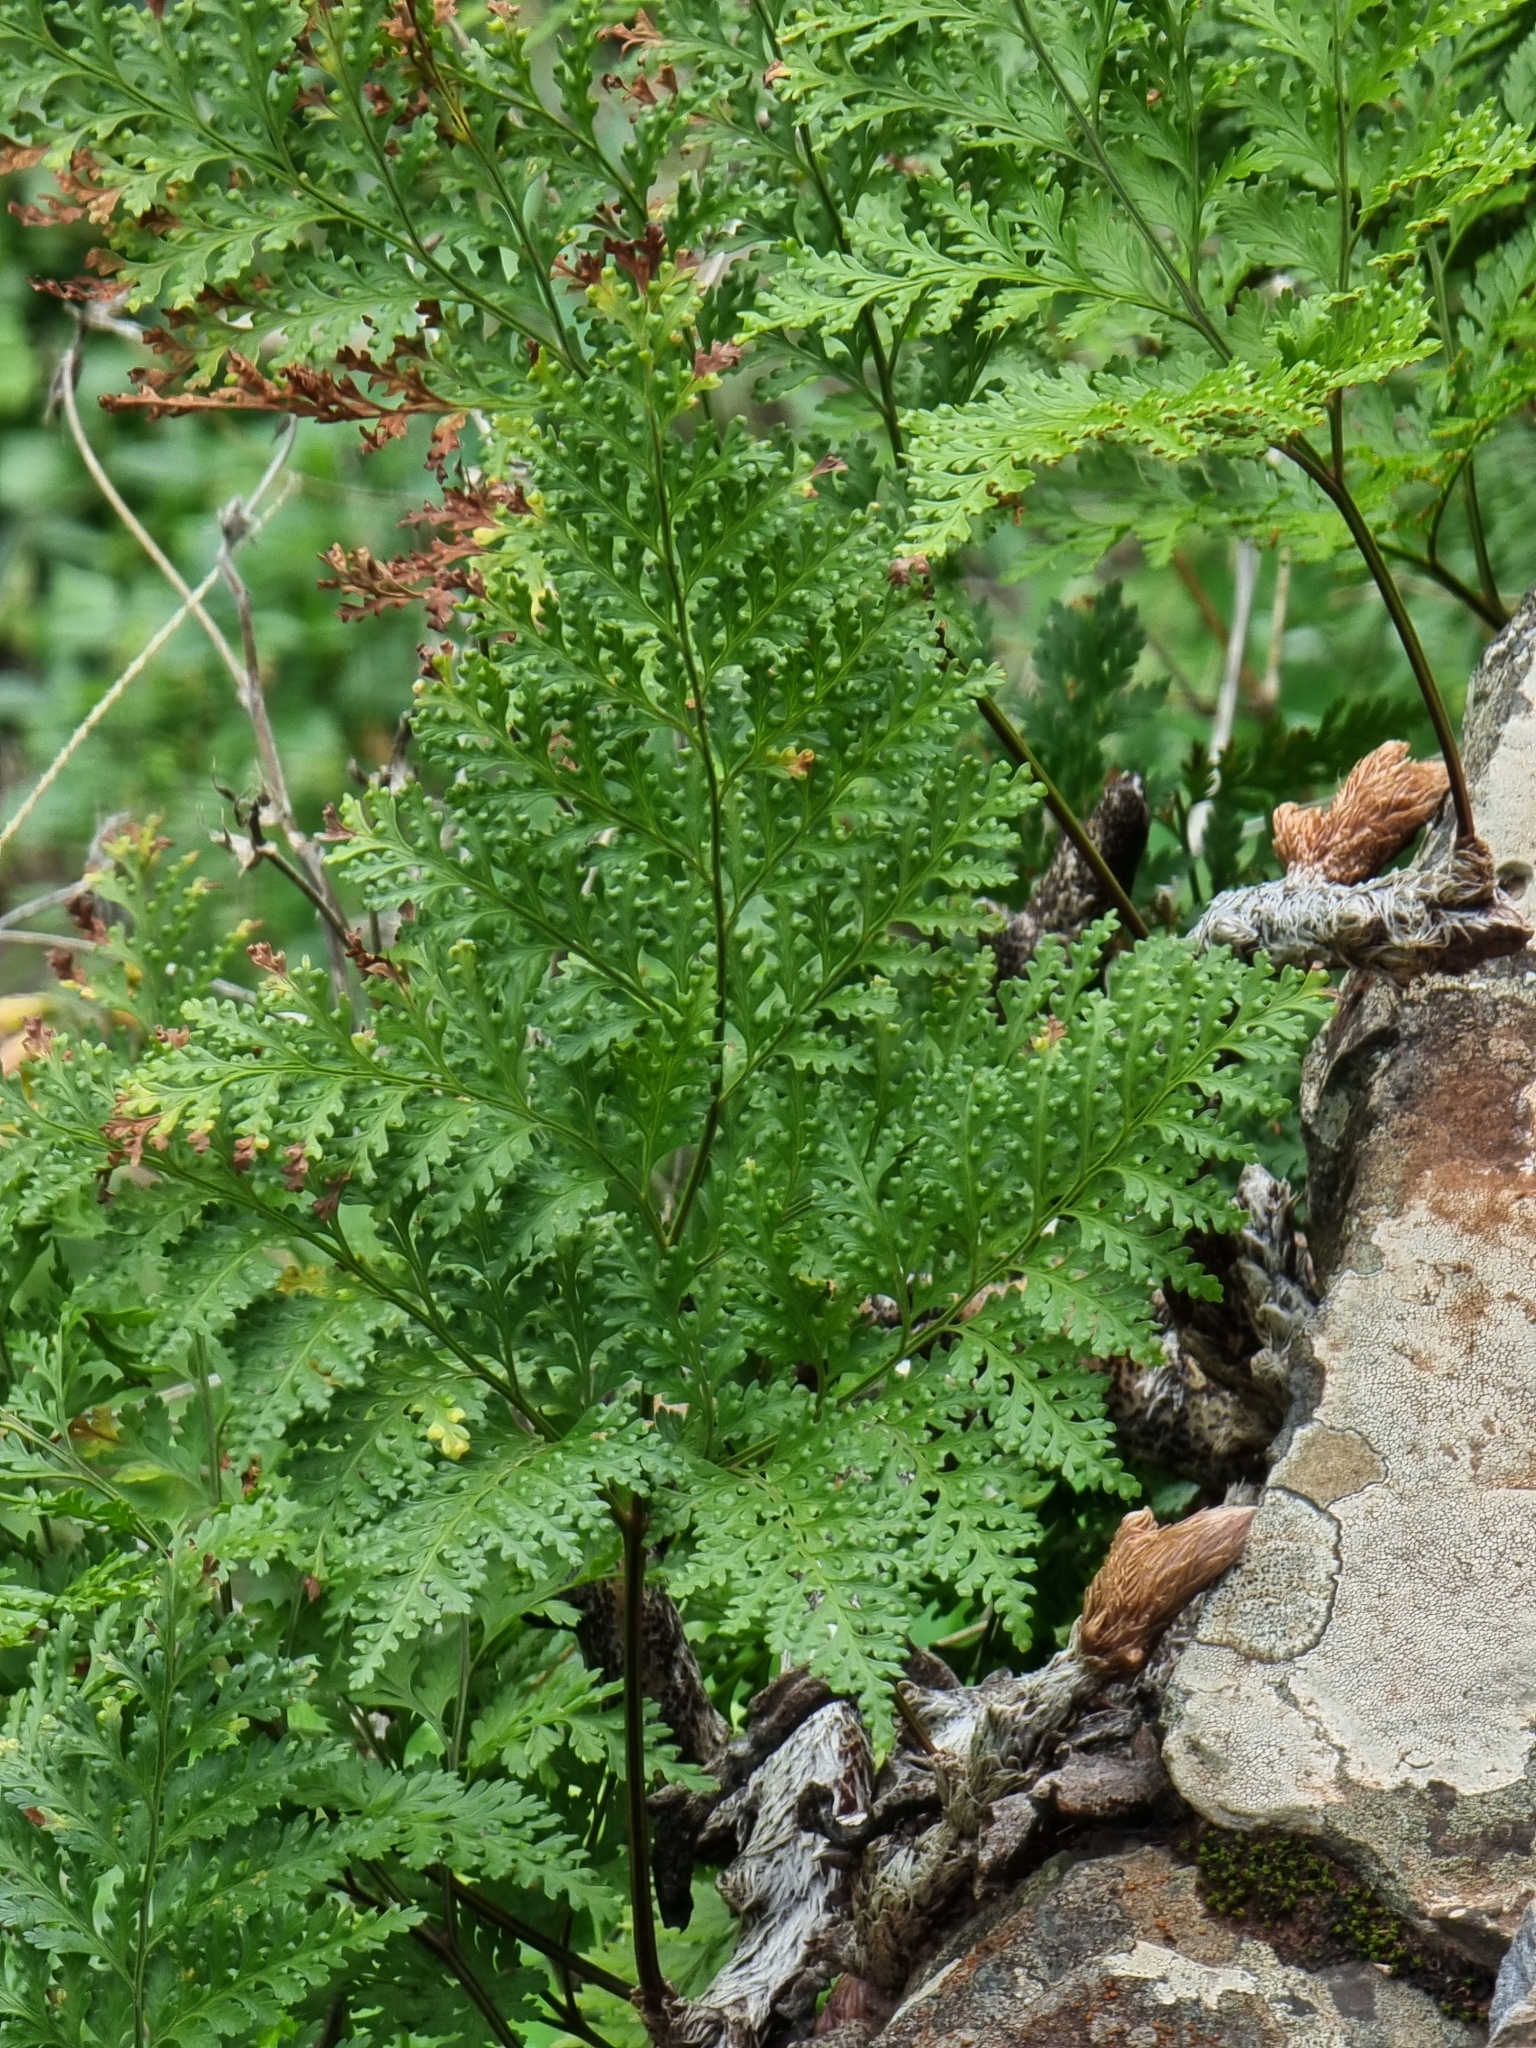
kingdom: Plantae
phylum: Tracheophyta
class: Polypodiopsida
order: Polypodiales
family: Davalliaceae
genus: Davallia
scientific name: Davallia canariensis
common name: Hare's-foot fern
